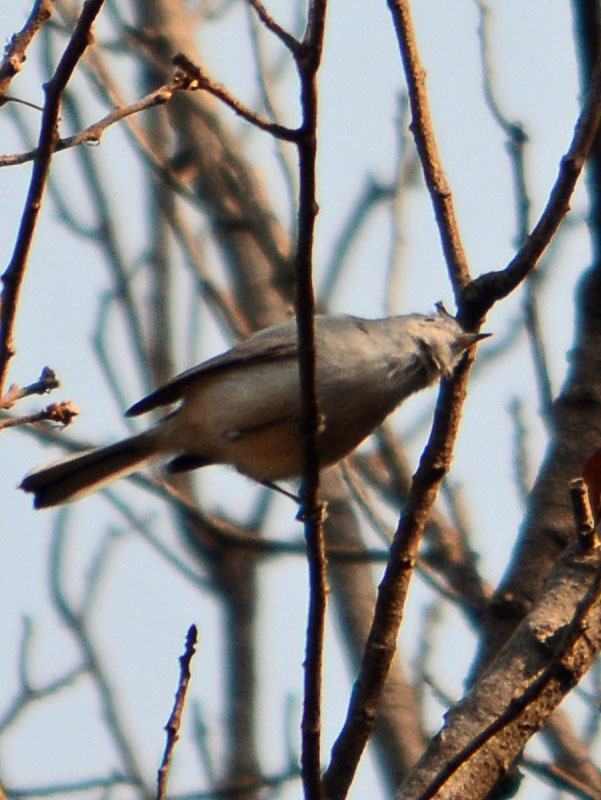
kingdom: Animalia
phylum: Chordata
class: Aves
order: Passeriformes
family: Polioptilidae
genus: Polioptila
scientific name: Polioptila caerulea
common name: Blue-gray gnatcatcher
